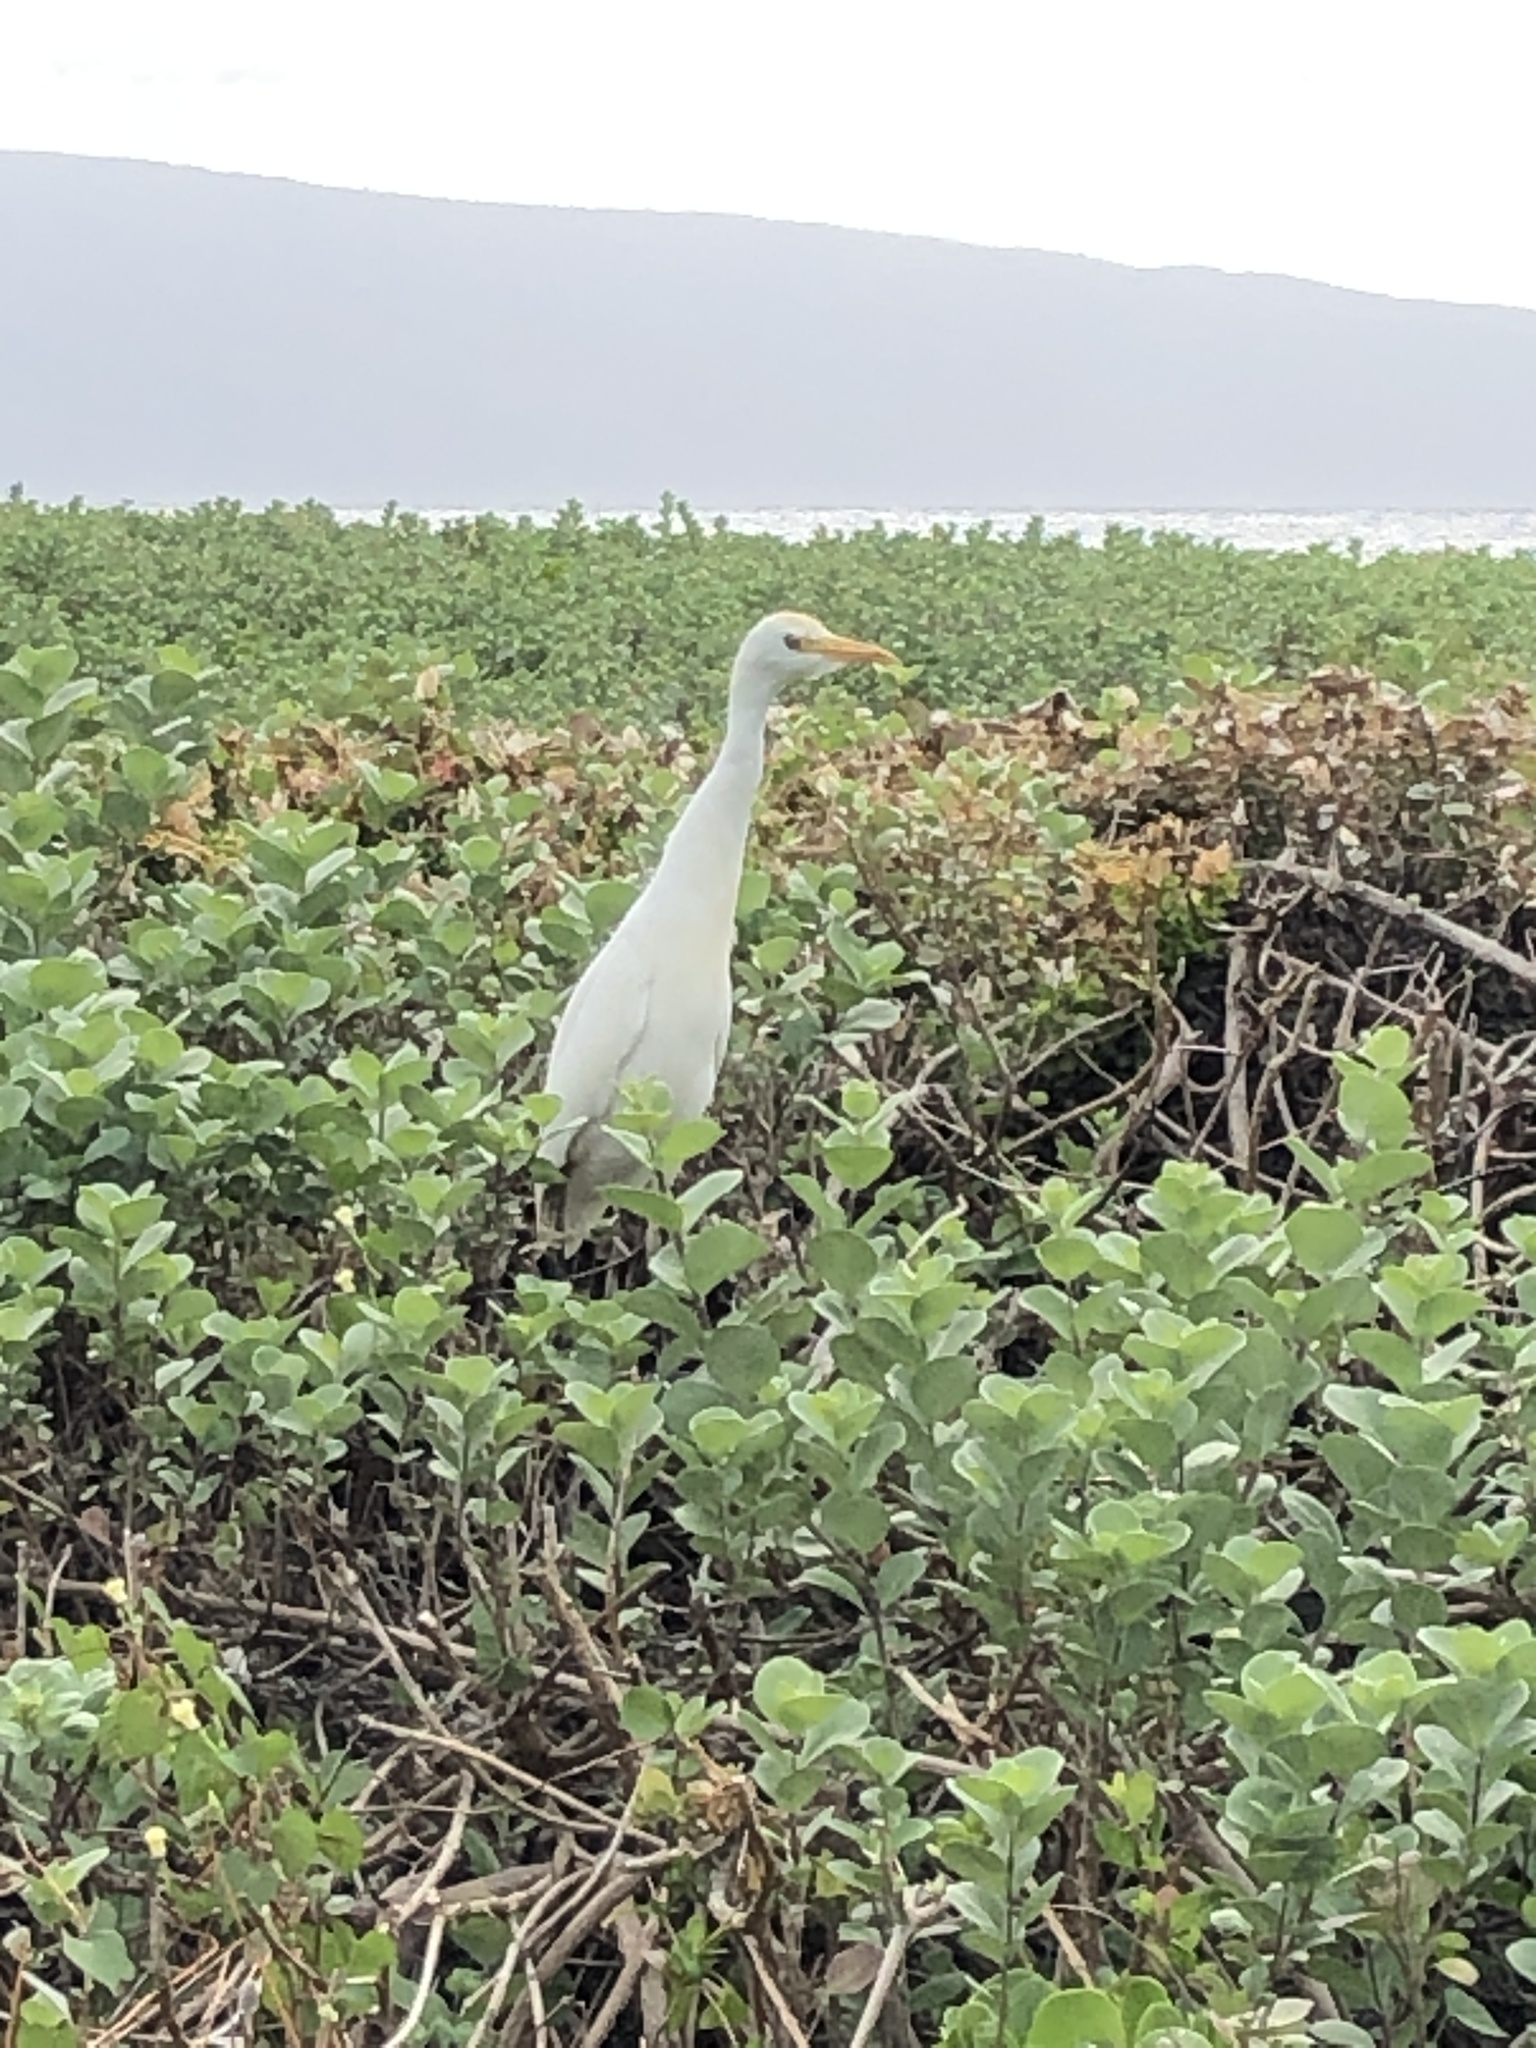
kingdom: Animalia
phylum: Chordata
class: Aves
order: Pelecaniformes
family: Ardeidae
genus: Bubulcus
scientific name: Bubulcus ibis
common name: Cattle egret
